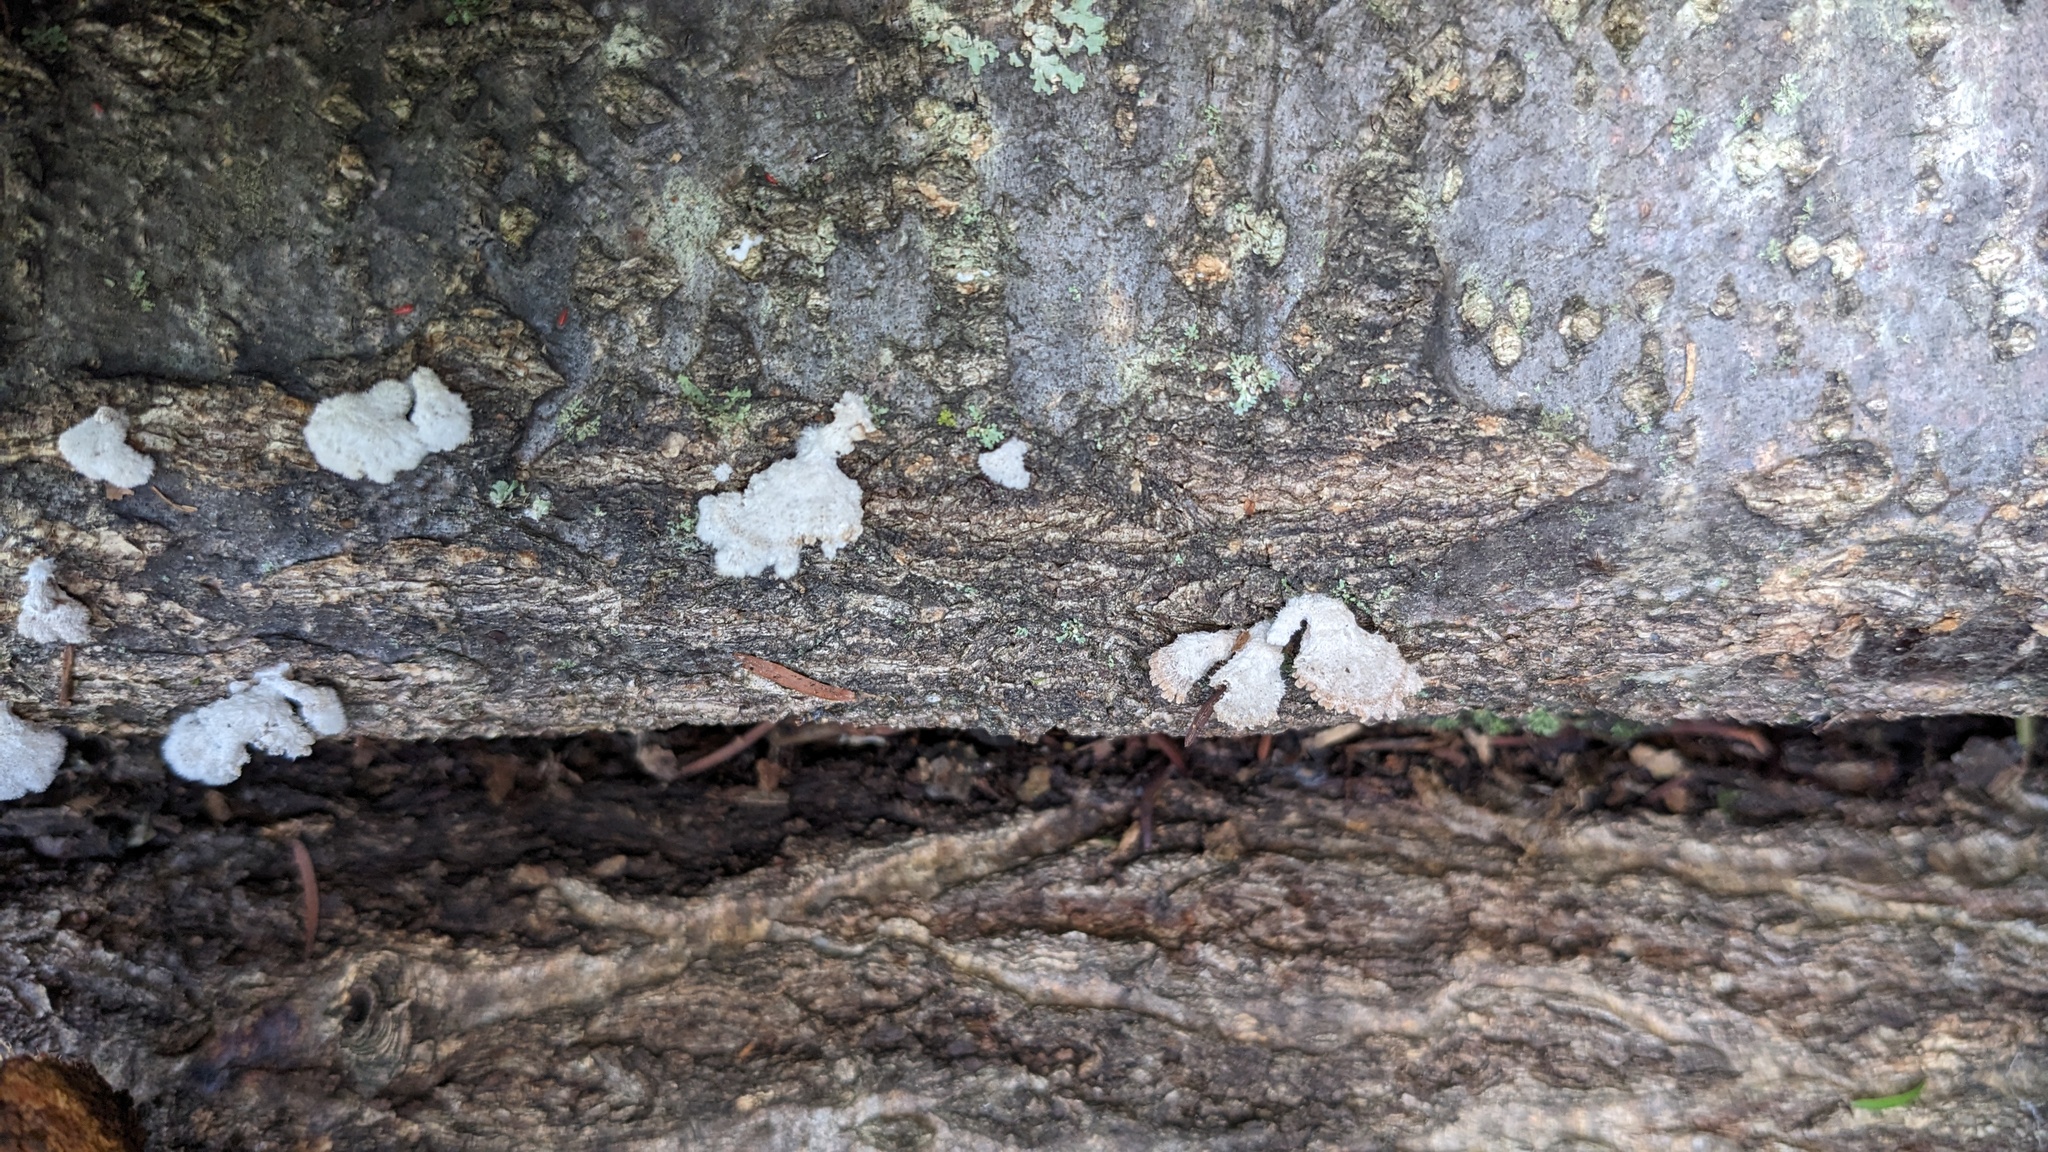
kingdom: Fungi
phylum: Basidiomycota
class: Agaricomycetes
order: Agaricales
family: Schizophyllaceae
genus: Schizophyllum
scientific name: Schizophyllum commune
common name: Common porecrust
